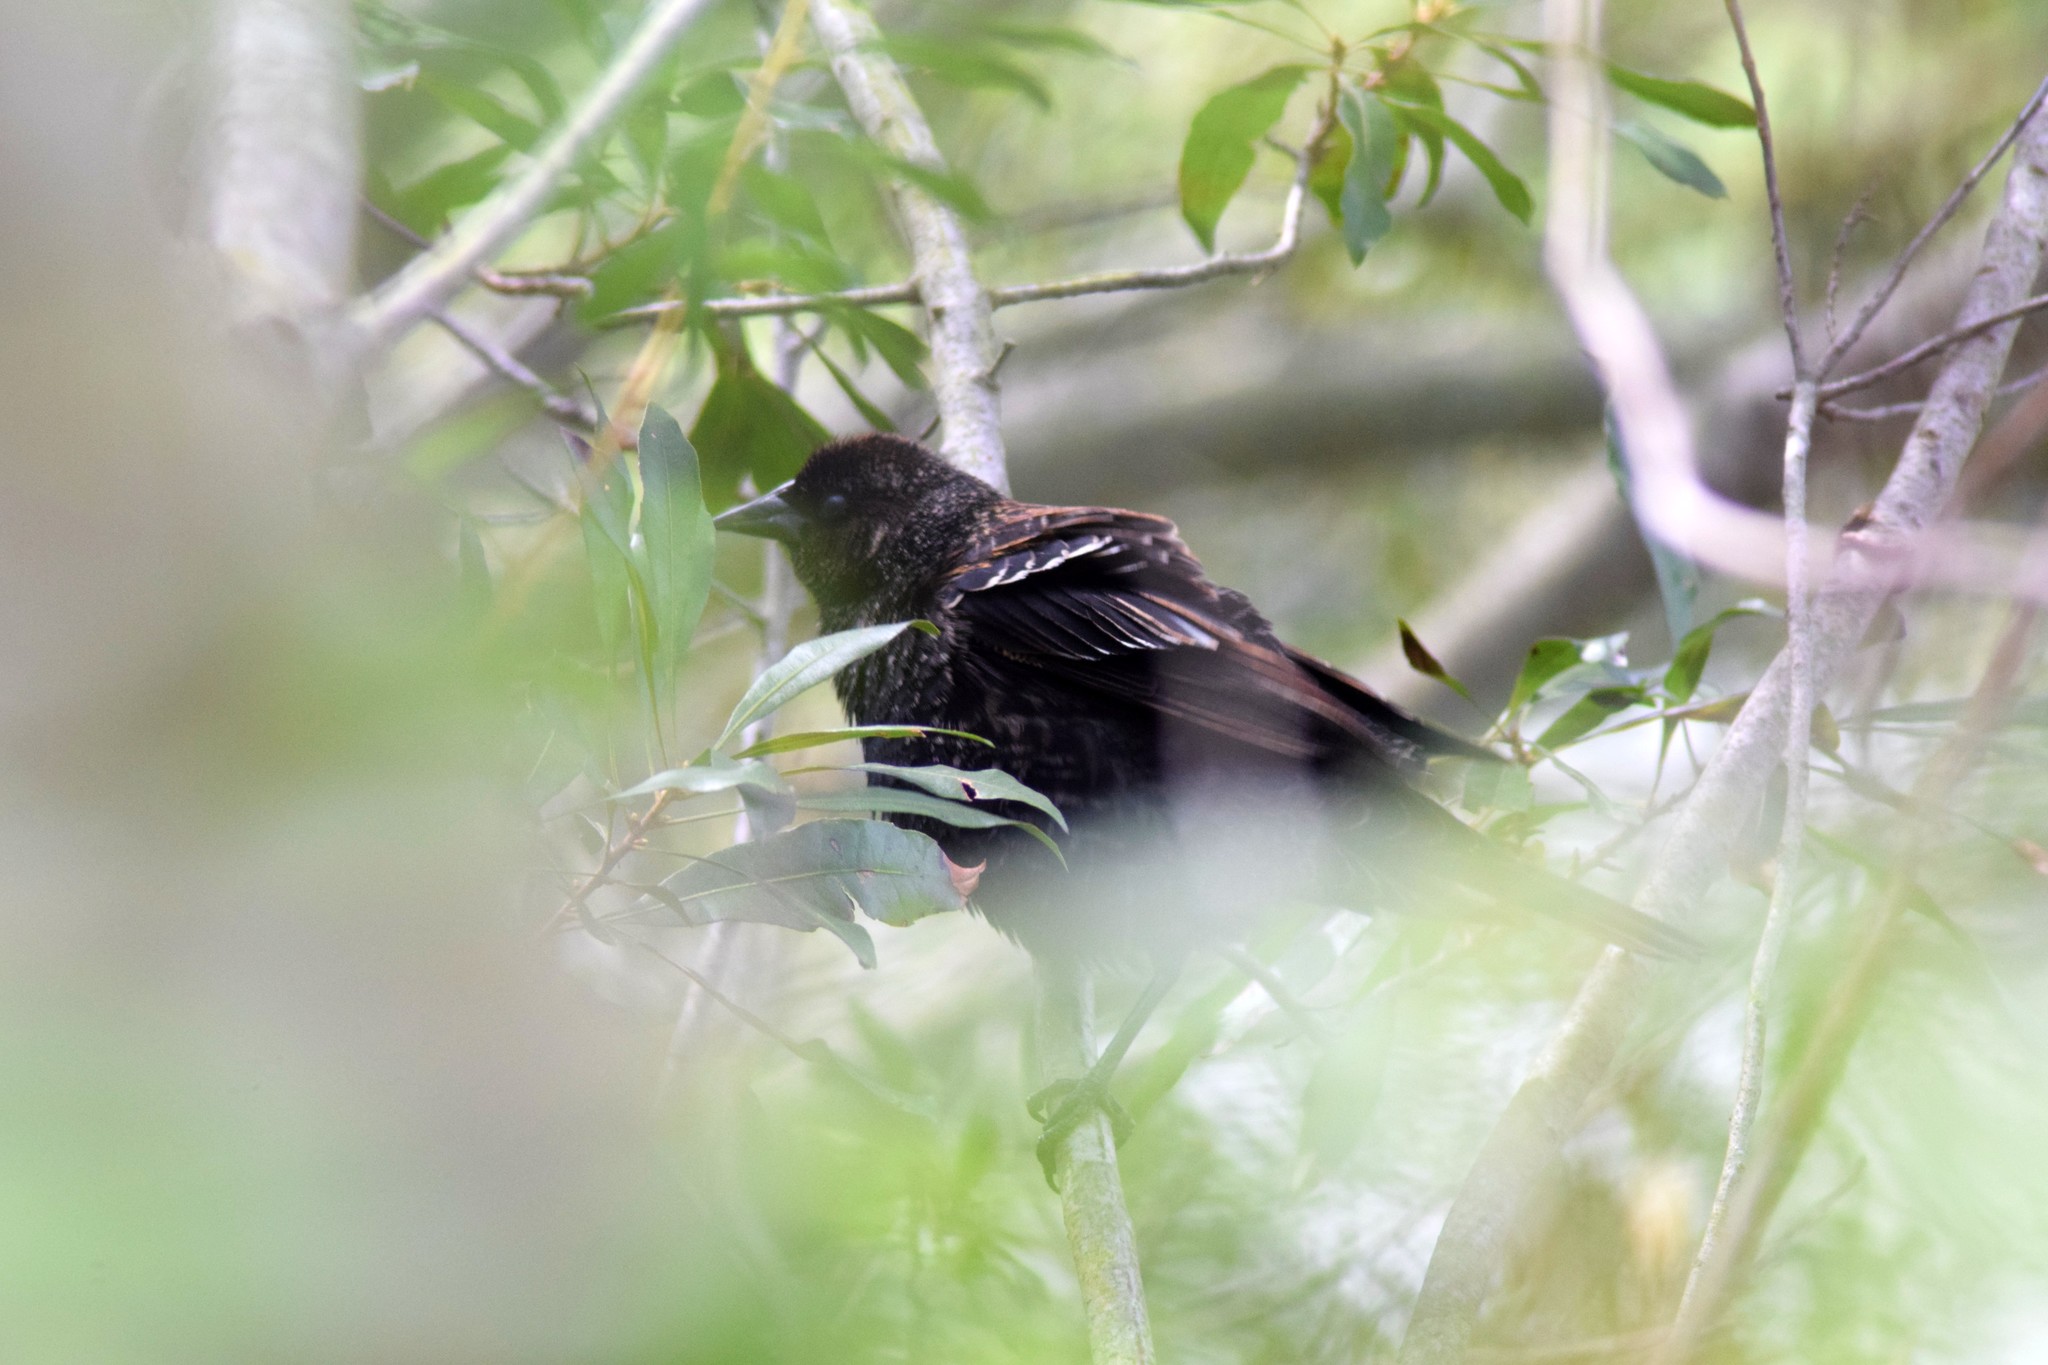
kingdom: Animalia
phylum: Chordata
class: Aves
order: Passeriformes
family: Icteridae
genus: Agelaius
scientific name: Agelaius phoeniceus
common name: Red-winged blackbird
